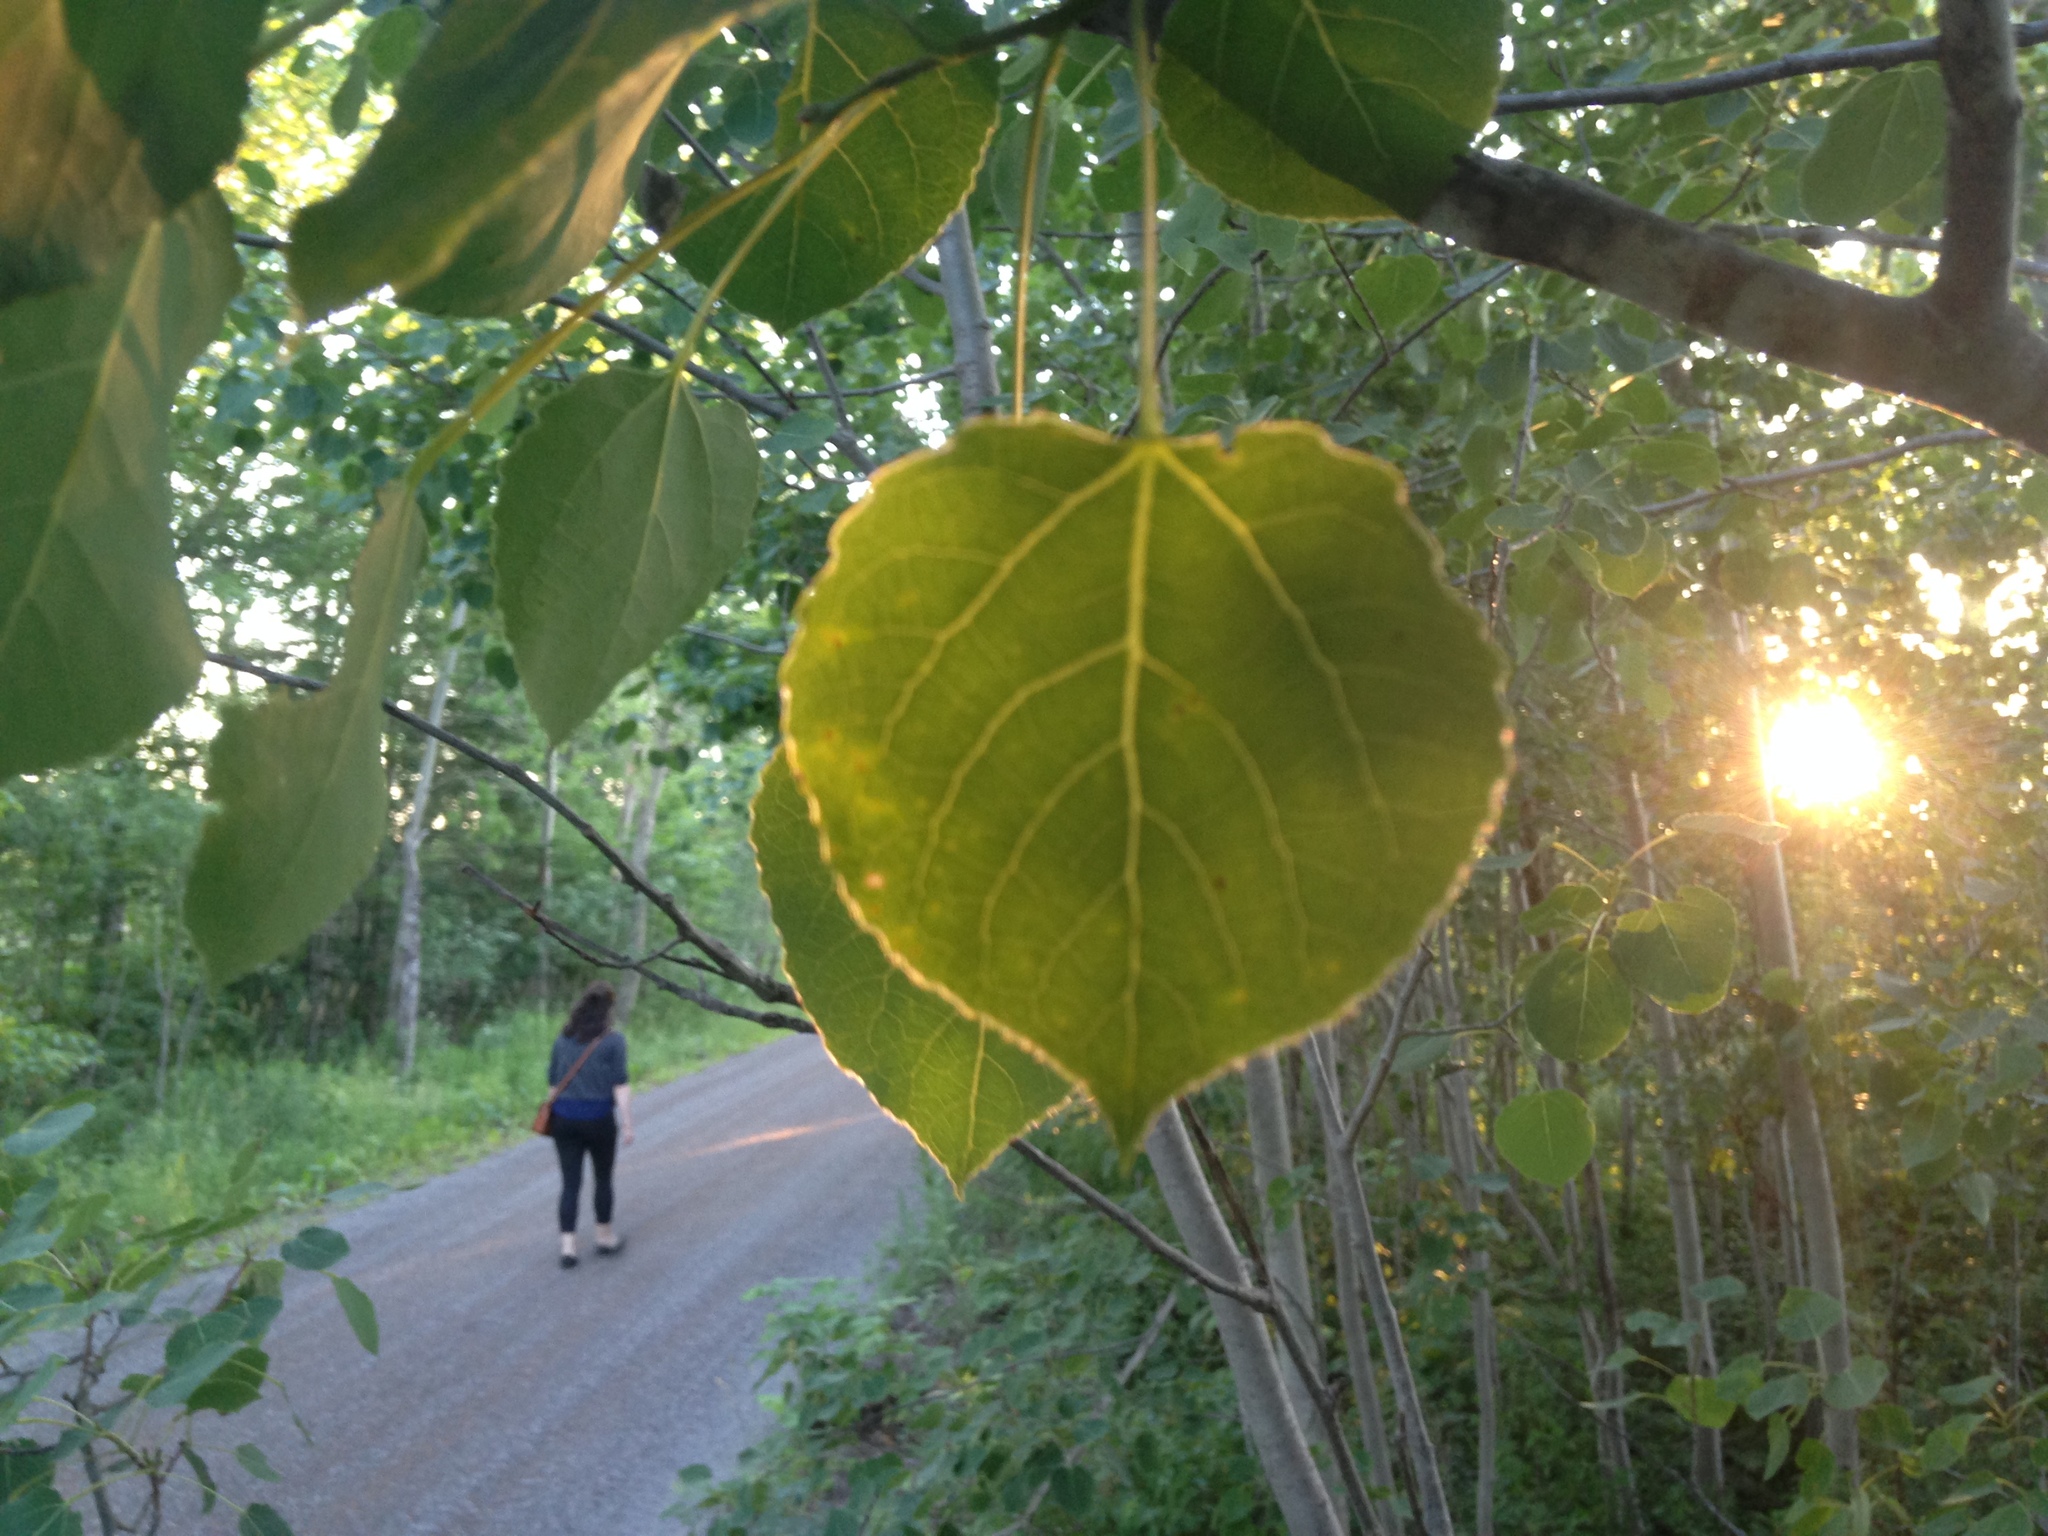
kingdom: Plantae
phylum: Tracheophyta
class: Magnoliopsida
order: Malpighiales
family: Salicaceae
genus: Populus
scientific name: Populus tremuloides
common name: Quaking aspen
